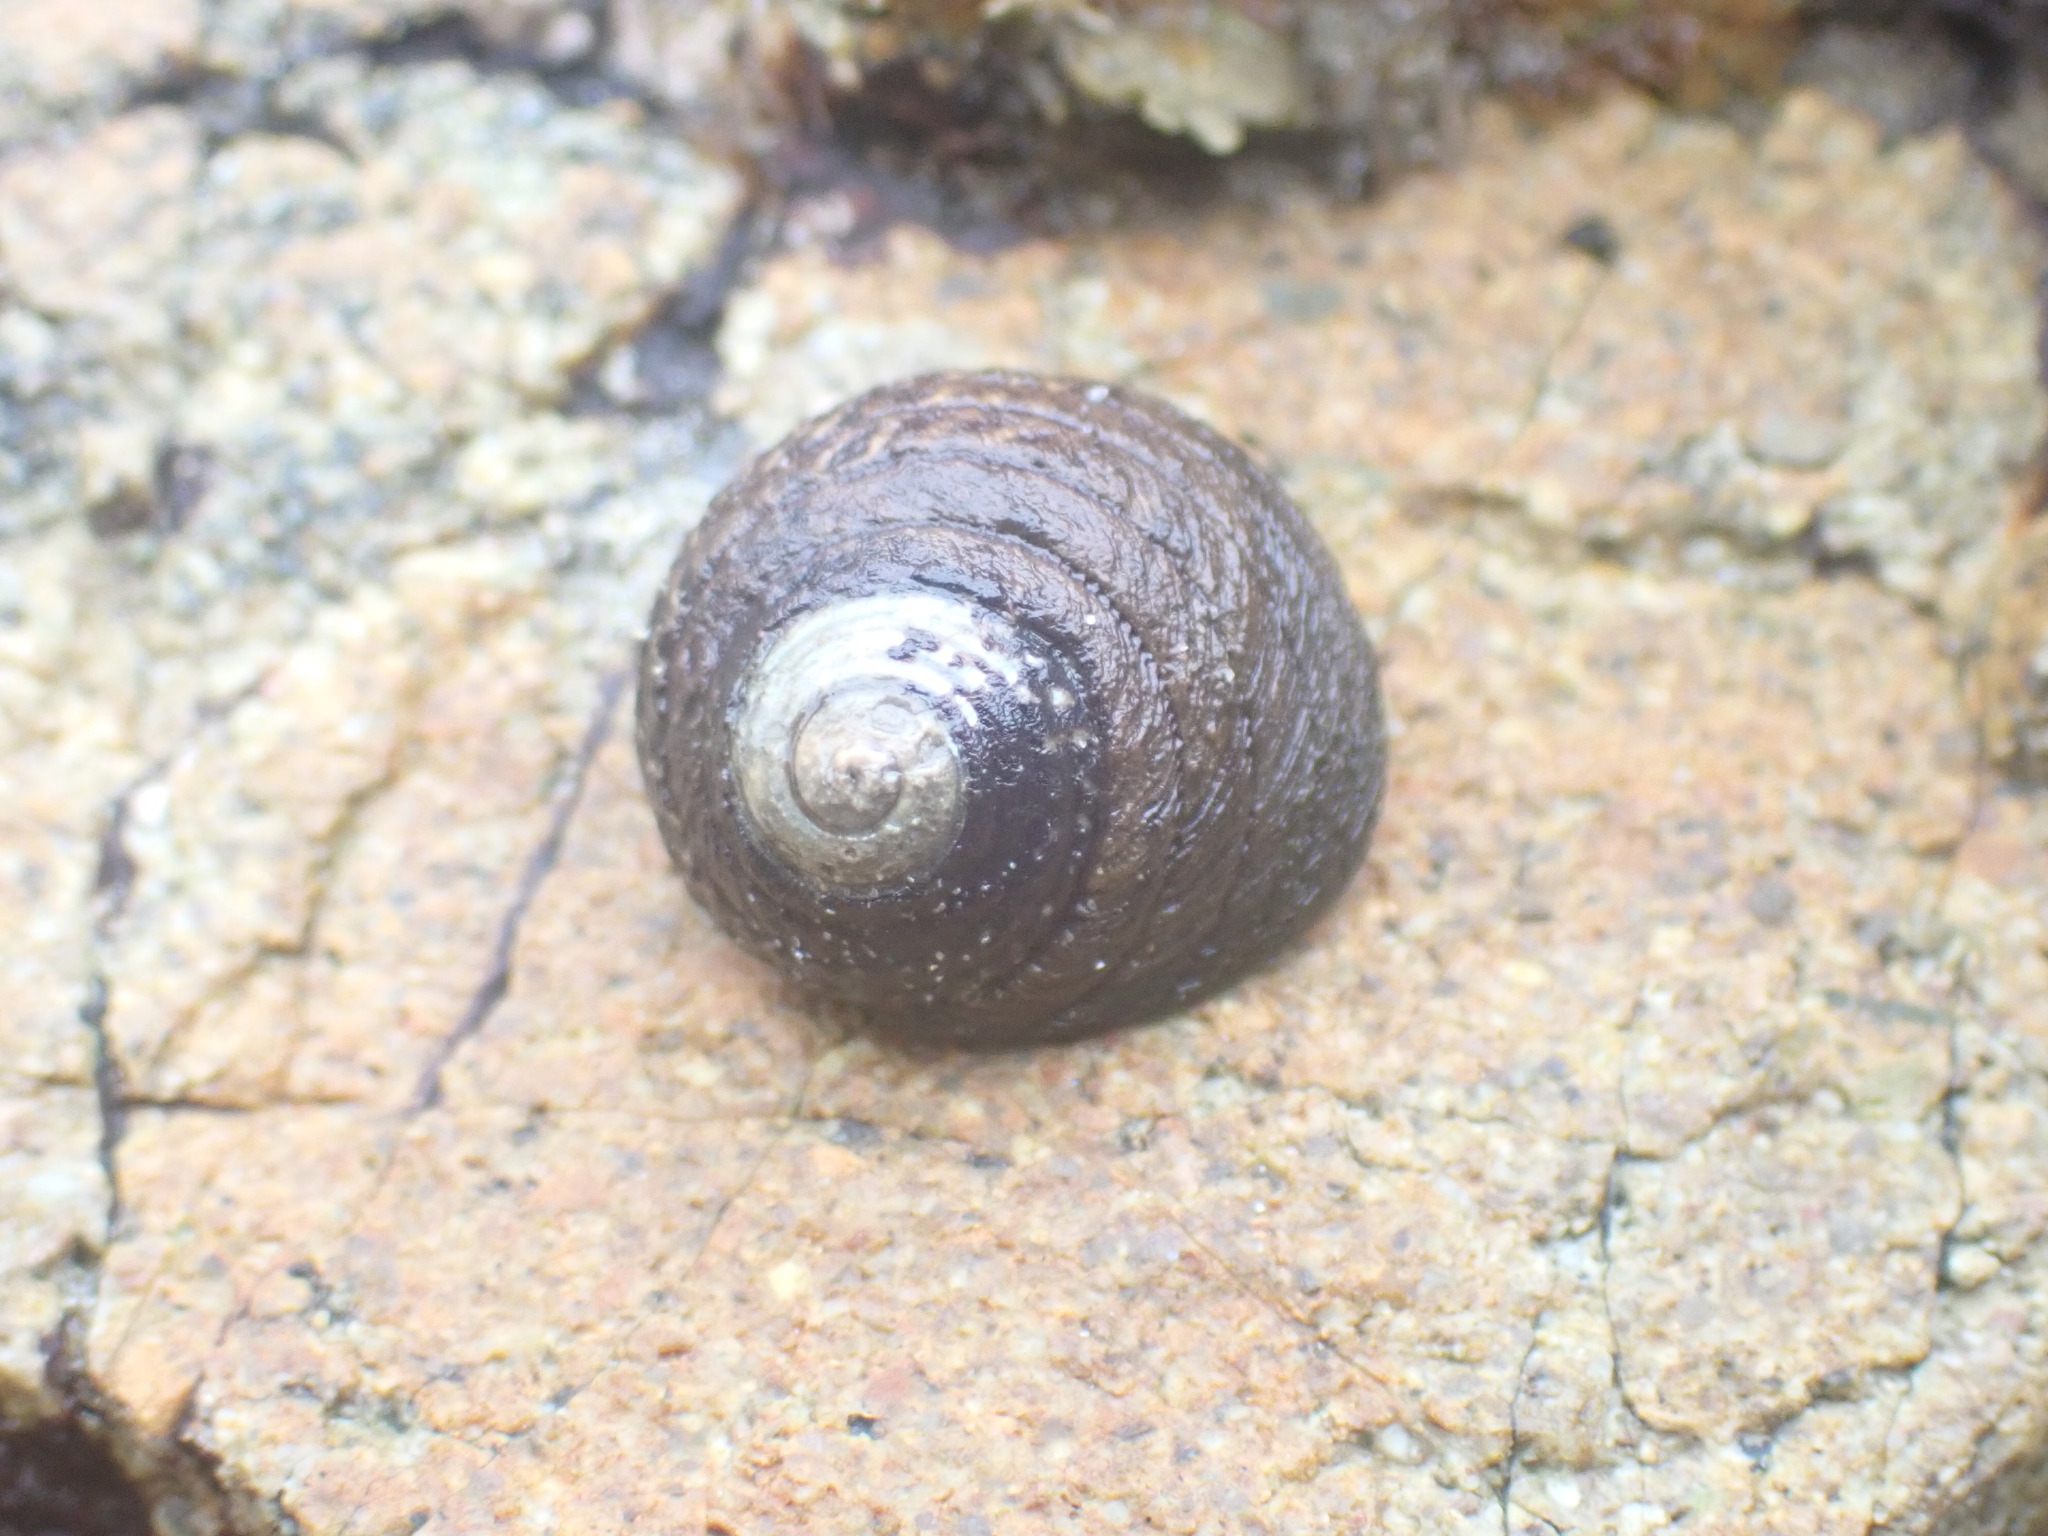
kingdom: Animalia
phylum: Mollusca
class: Gastropoda
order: Trochida
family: Trochidae
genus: Diloma
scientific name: Diloma aethiops
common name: Scorched monodont
